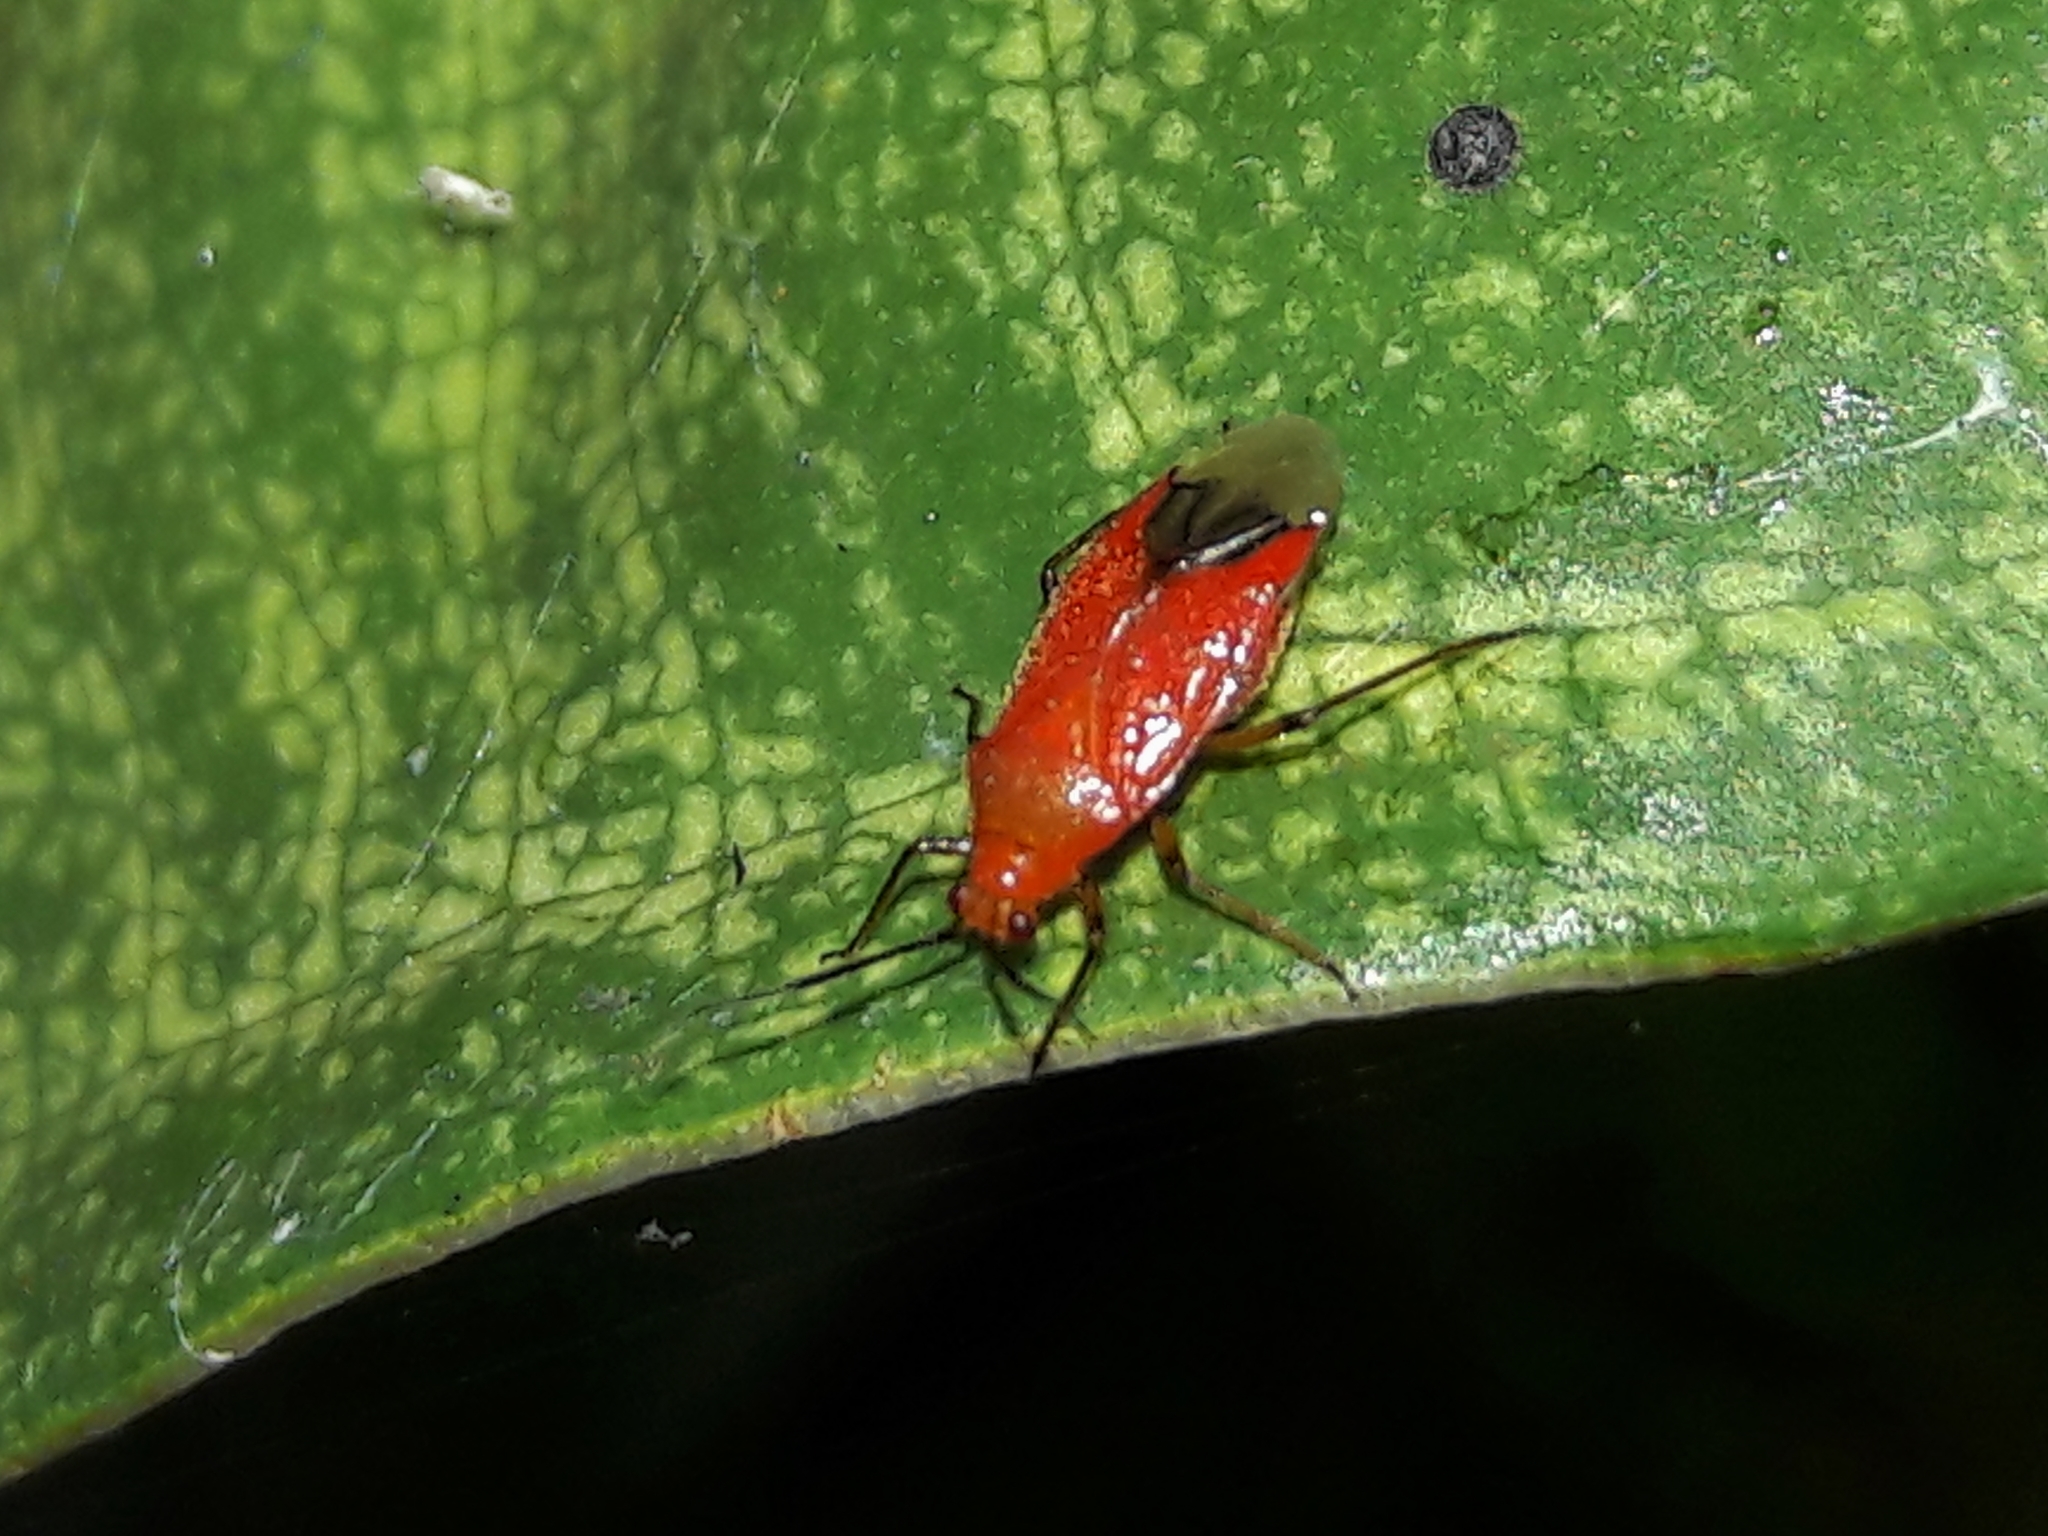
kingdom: Animalia
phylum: Arthropoda
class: Insecta
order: Hemiptera
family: Miridae
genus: Ambracius
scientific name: Ambracius dufouri
